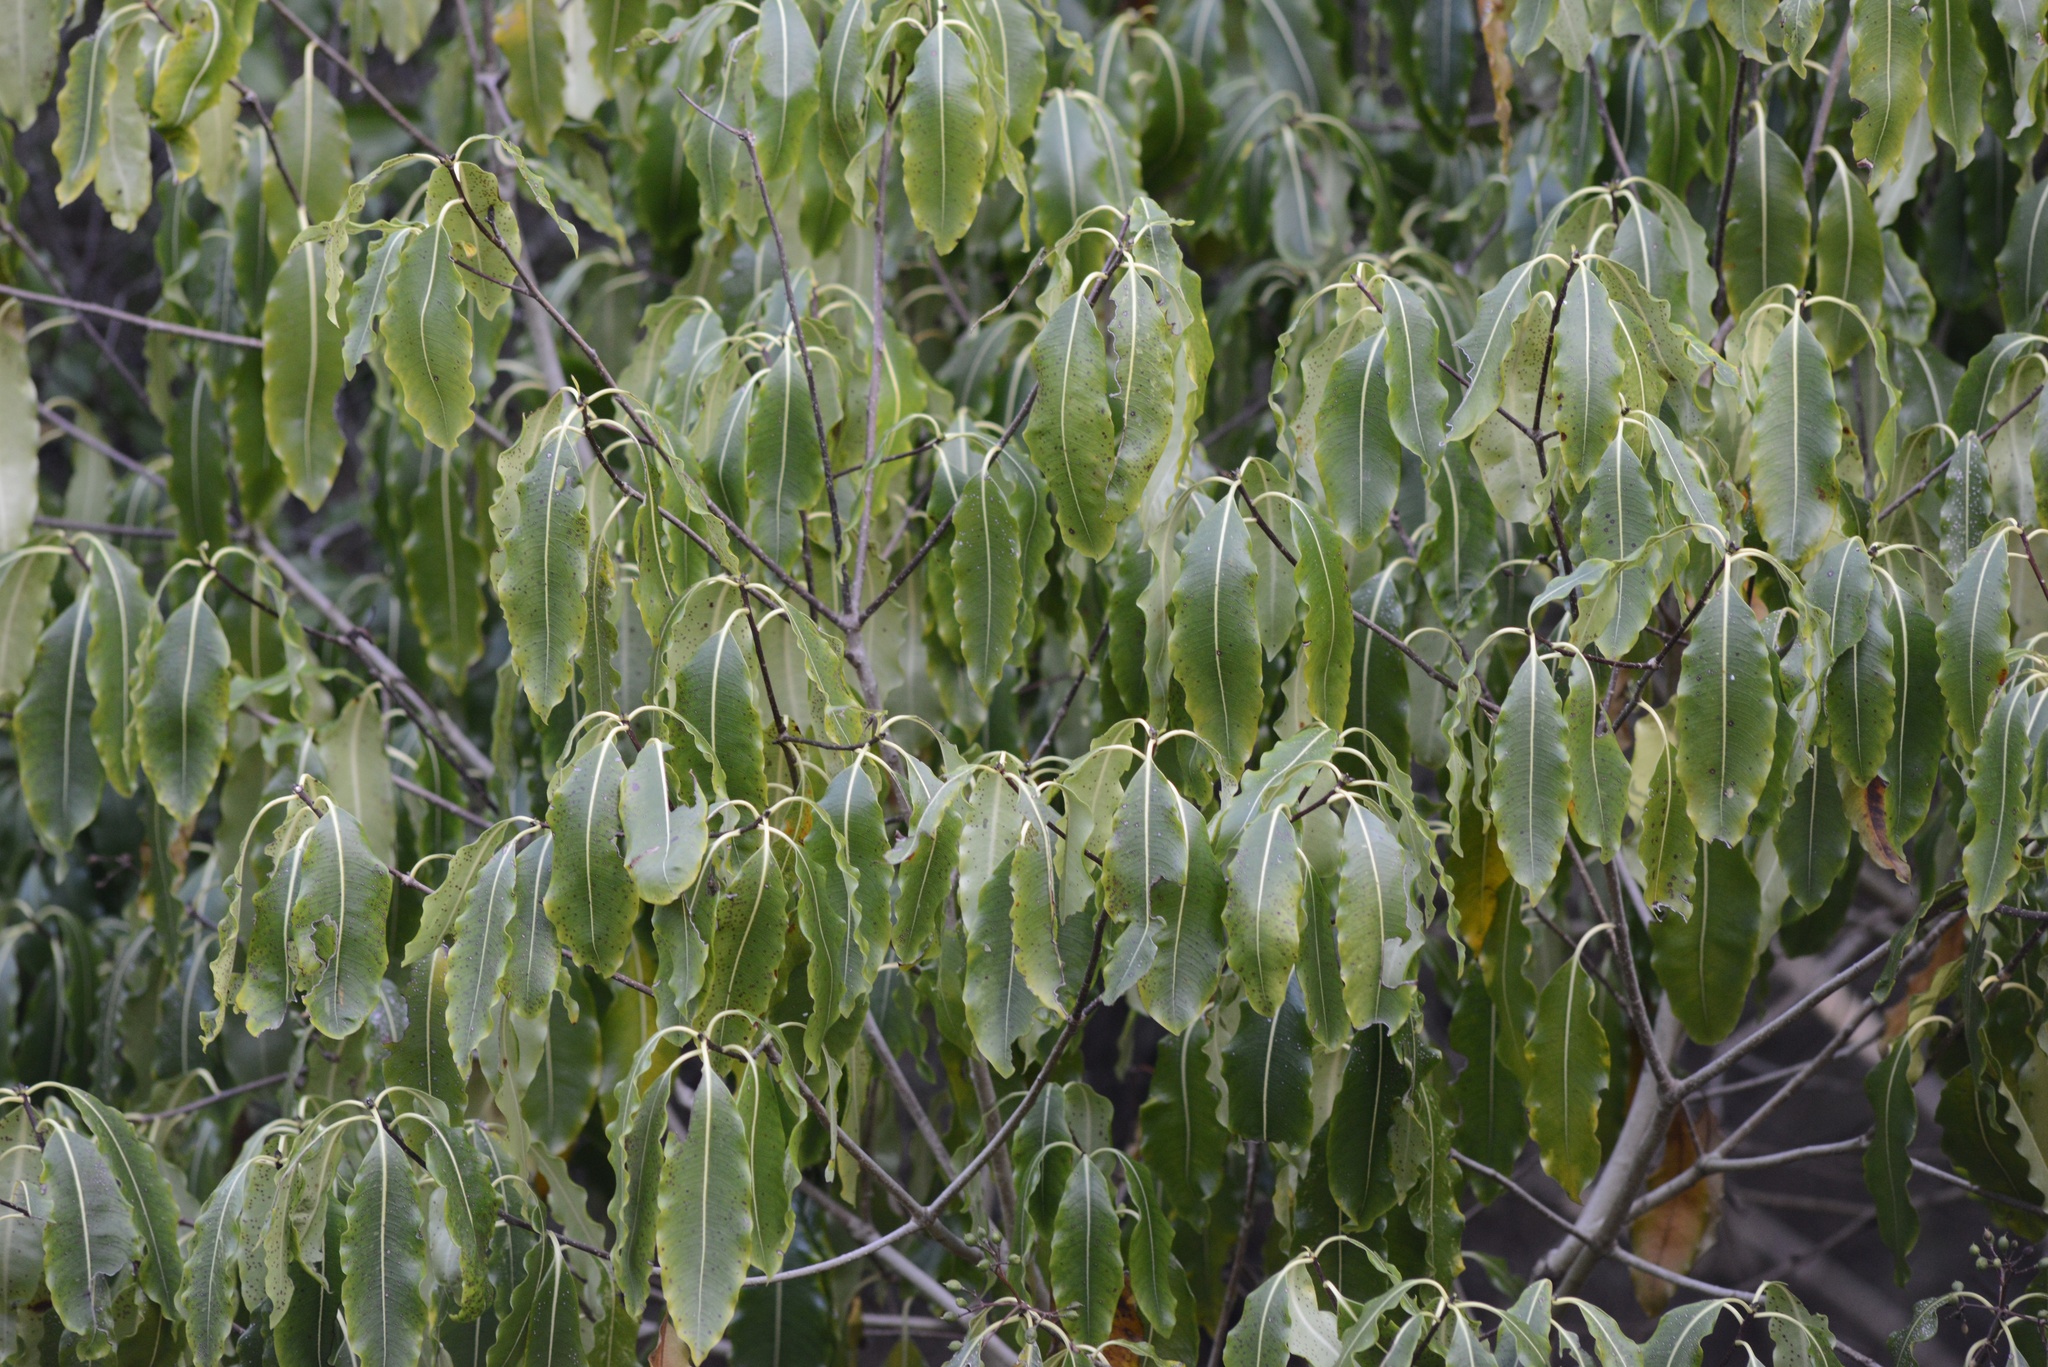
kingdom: Plantae
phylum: Tracheophyta
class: Magnoliopsida
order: Apiales
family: Pittosporaceae
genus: Pittosporum
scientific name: Pittosporum eugenioides
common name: Lemonwood
